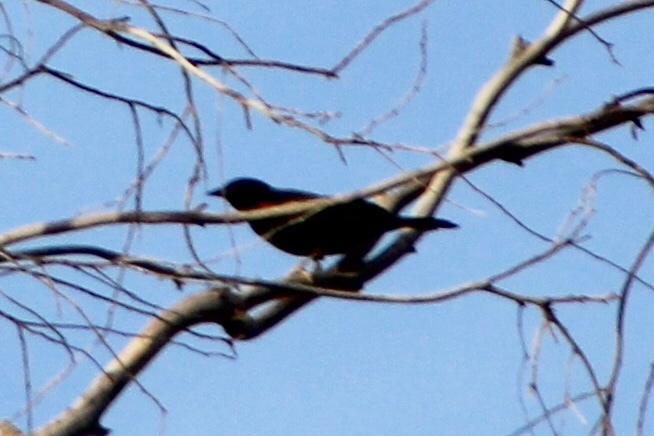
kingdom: Animalia
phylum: Chordata
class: Aves
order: Passeriformes
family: Icteridae
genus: Agelaius
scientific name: Agelaius phoeniceus
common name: Red-winged blackbird
